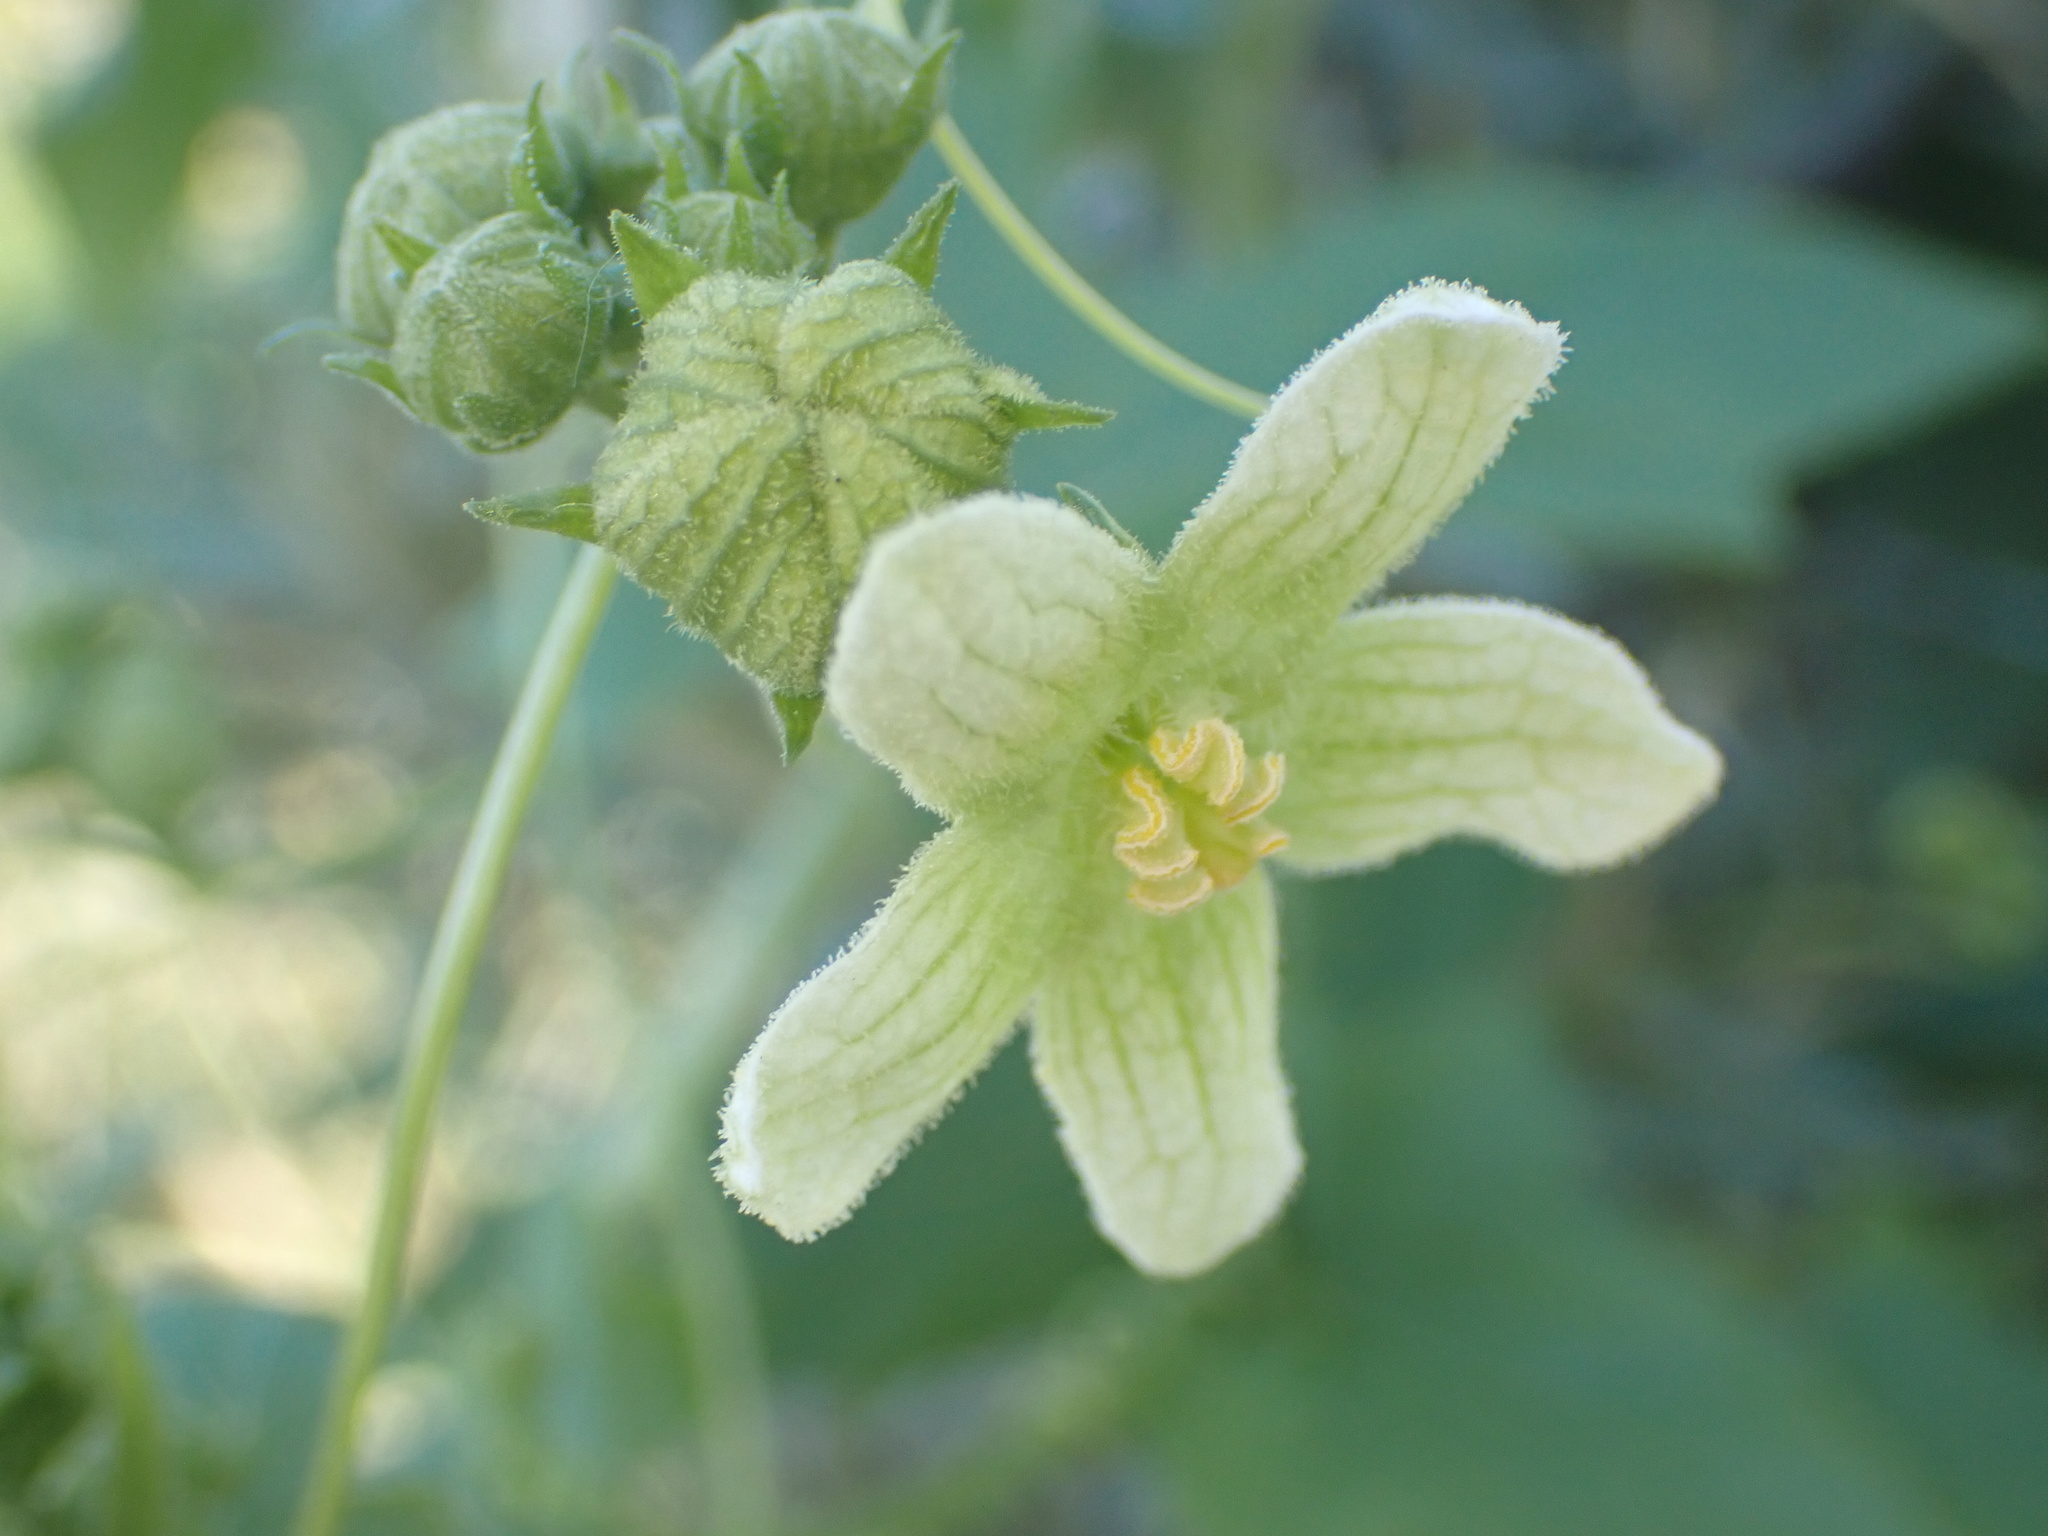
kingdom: Plantae
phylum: Tracheophyta
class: Magnoliopsida
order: Cucurbitales
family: Cucurbitaceae
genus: Bryonia
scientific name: Bryonia dioica
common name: White bryony
